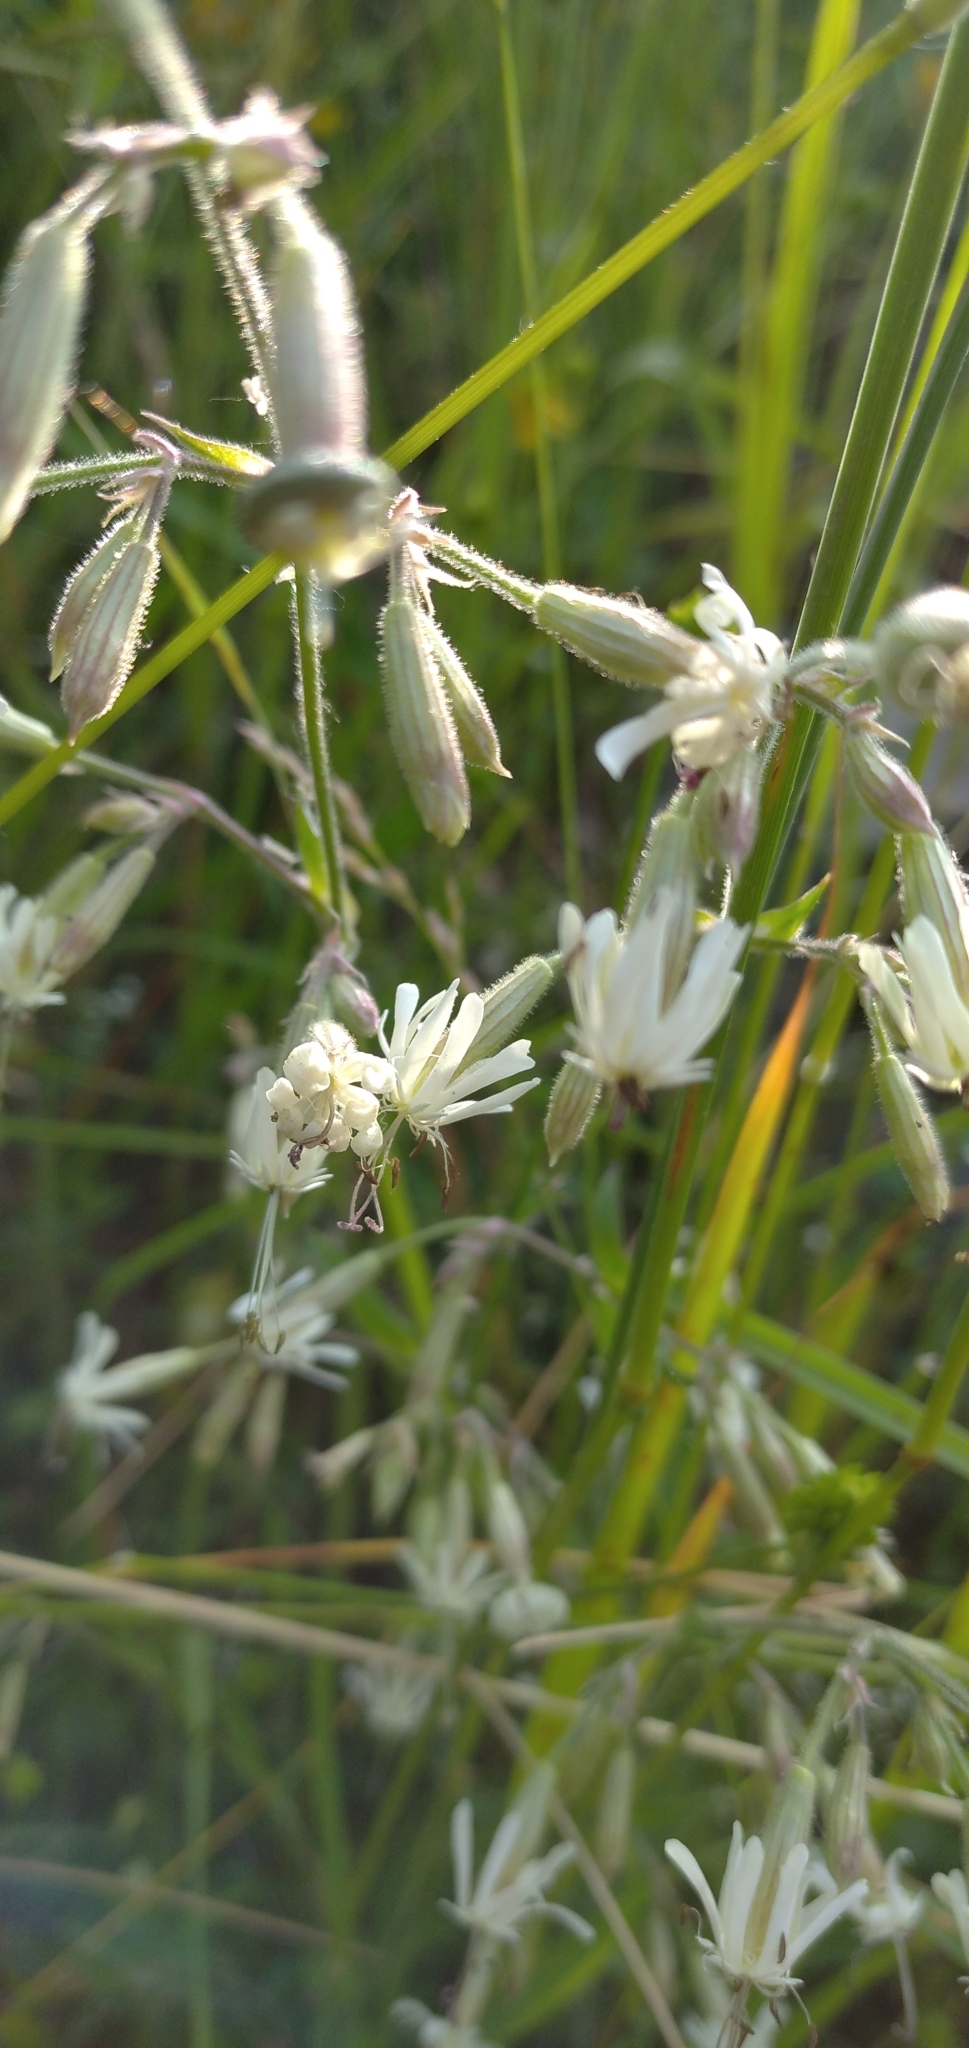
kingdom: Plantae
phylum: Tracheophyta
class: Magnoliopsida
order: Caryophyllales
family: Caryophyllaceae
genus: Silene
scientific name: Silene nutans
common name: Nottingham catchfly
